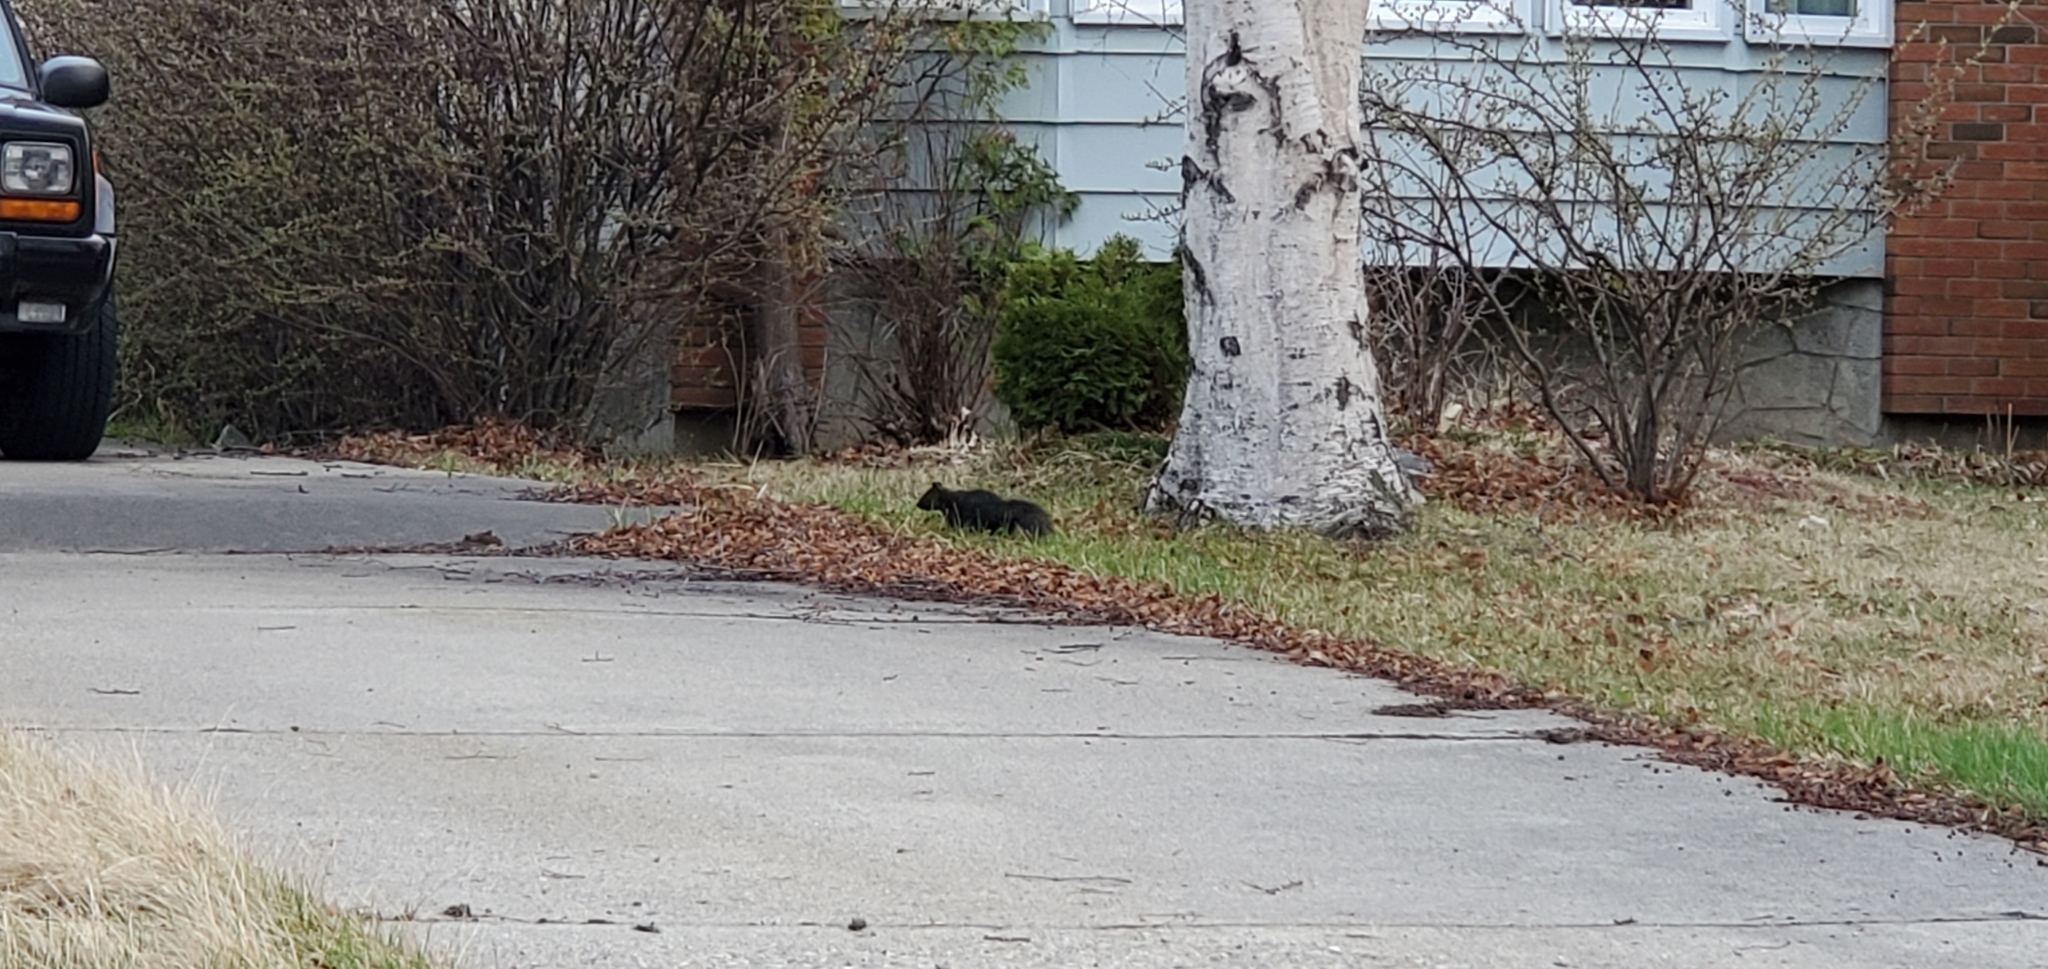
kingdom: Animalia
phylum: Chordata
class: Mammalia
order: Rodentia
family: Sciuridae
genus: Sciurus
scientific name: Sciurus carolinensis
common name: Eastern gray squirrel
